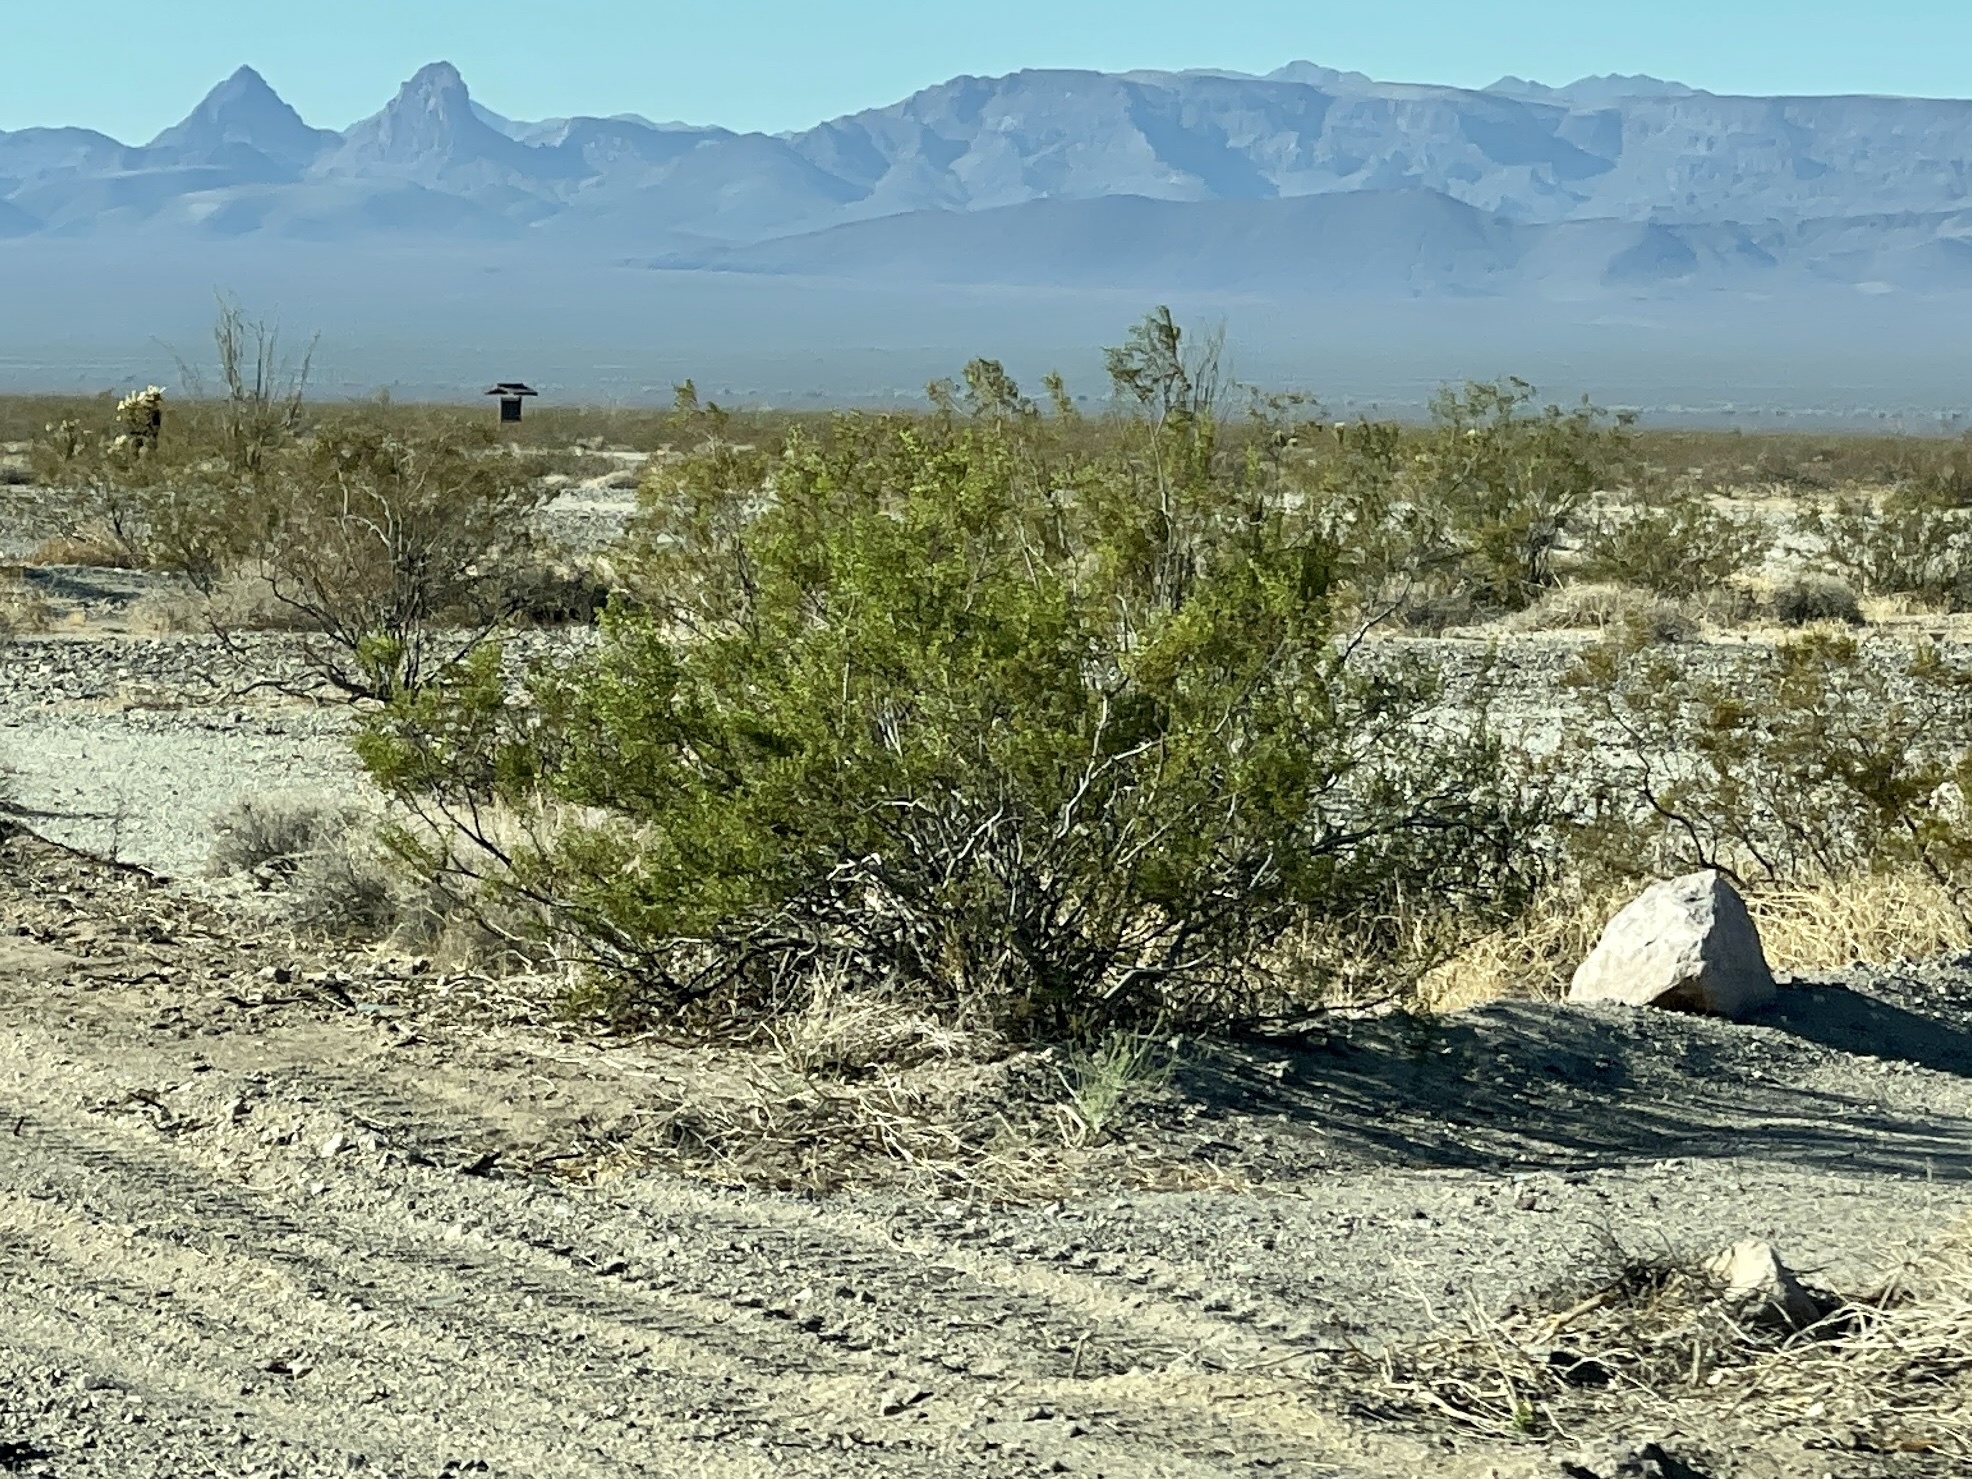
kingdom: Plantae
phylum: Tracheophyta
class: Magnoliopsida
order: Zygophyllales
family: Zygophyllaceae
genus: Larrea
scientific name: Larrea tridentata
